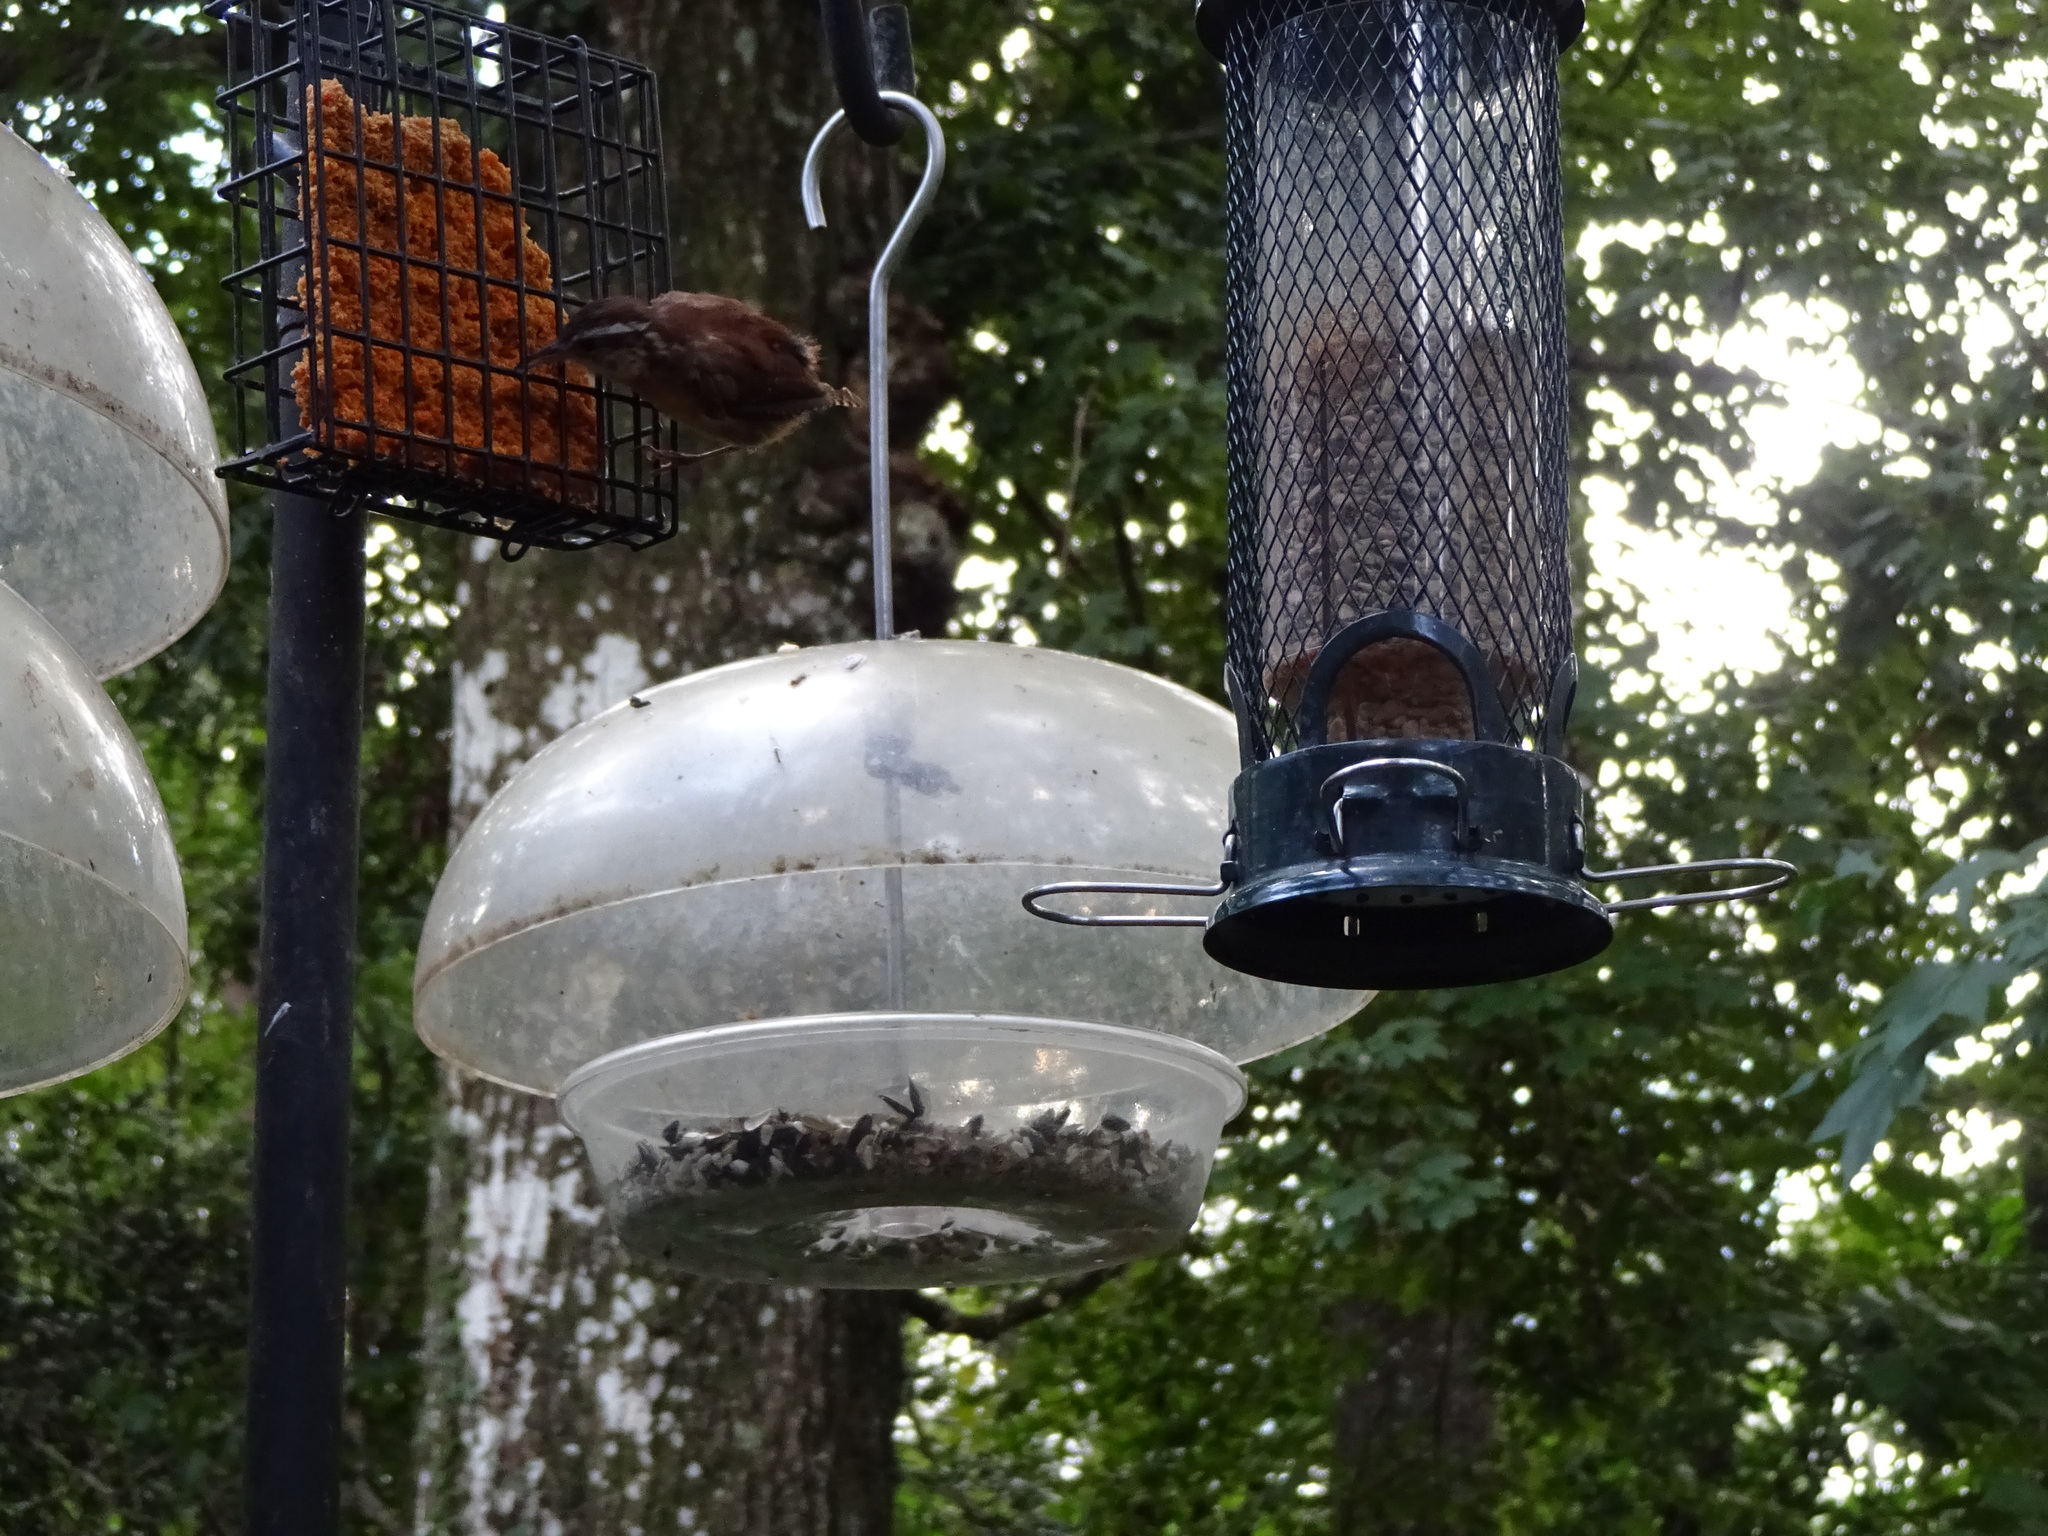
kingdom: Animalia
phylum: Chordata
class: Aves
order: Passeriformes
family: Troglodytidae
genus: Thryothorus
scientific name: Thryothorus ludovicianus
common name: Carolina wren
